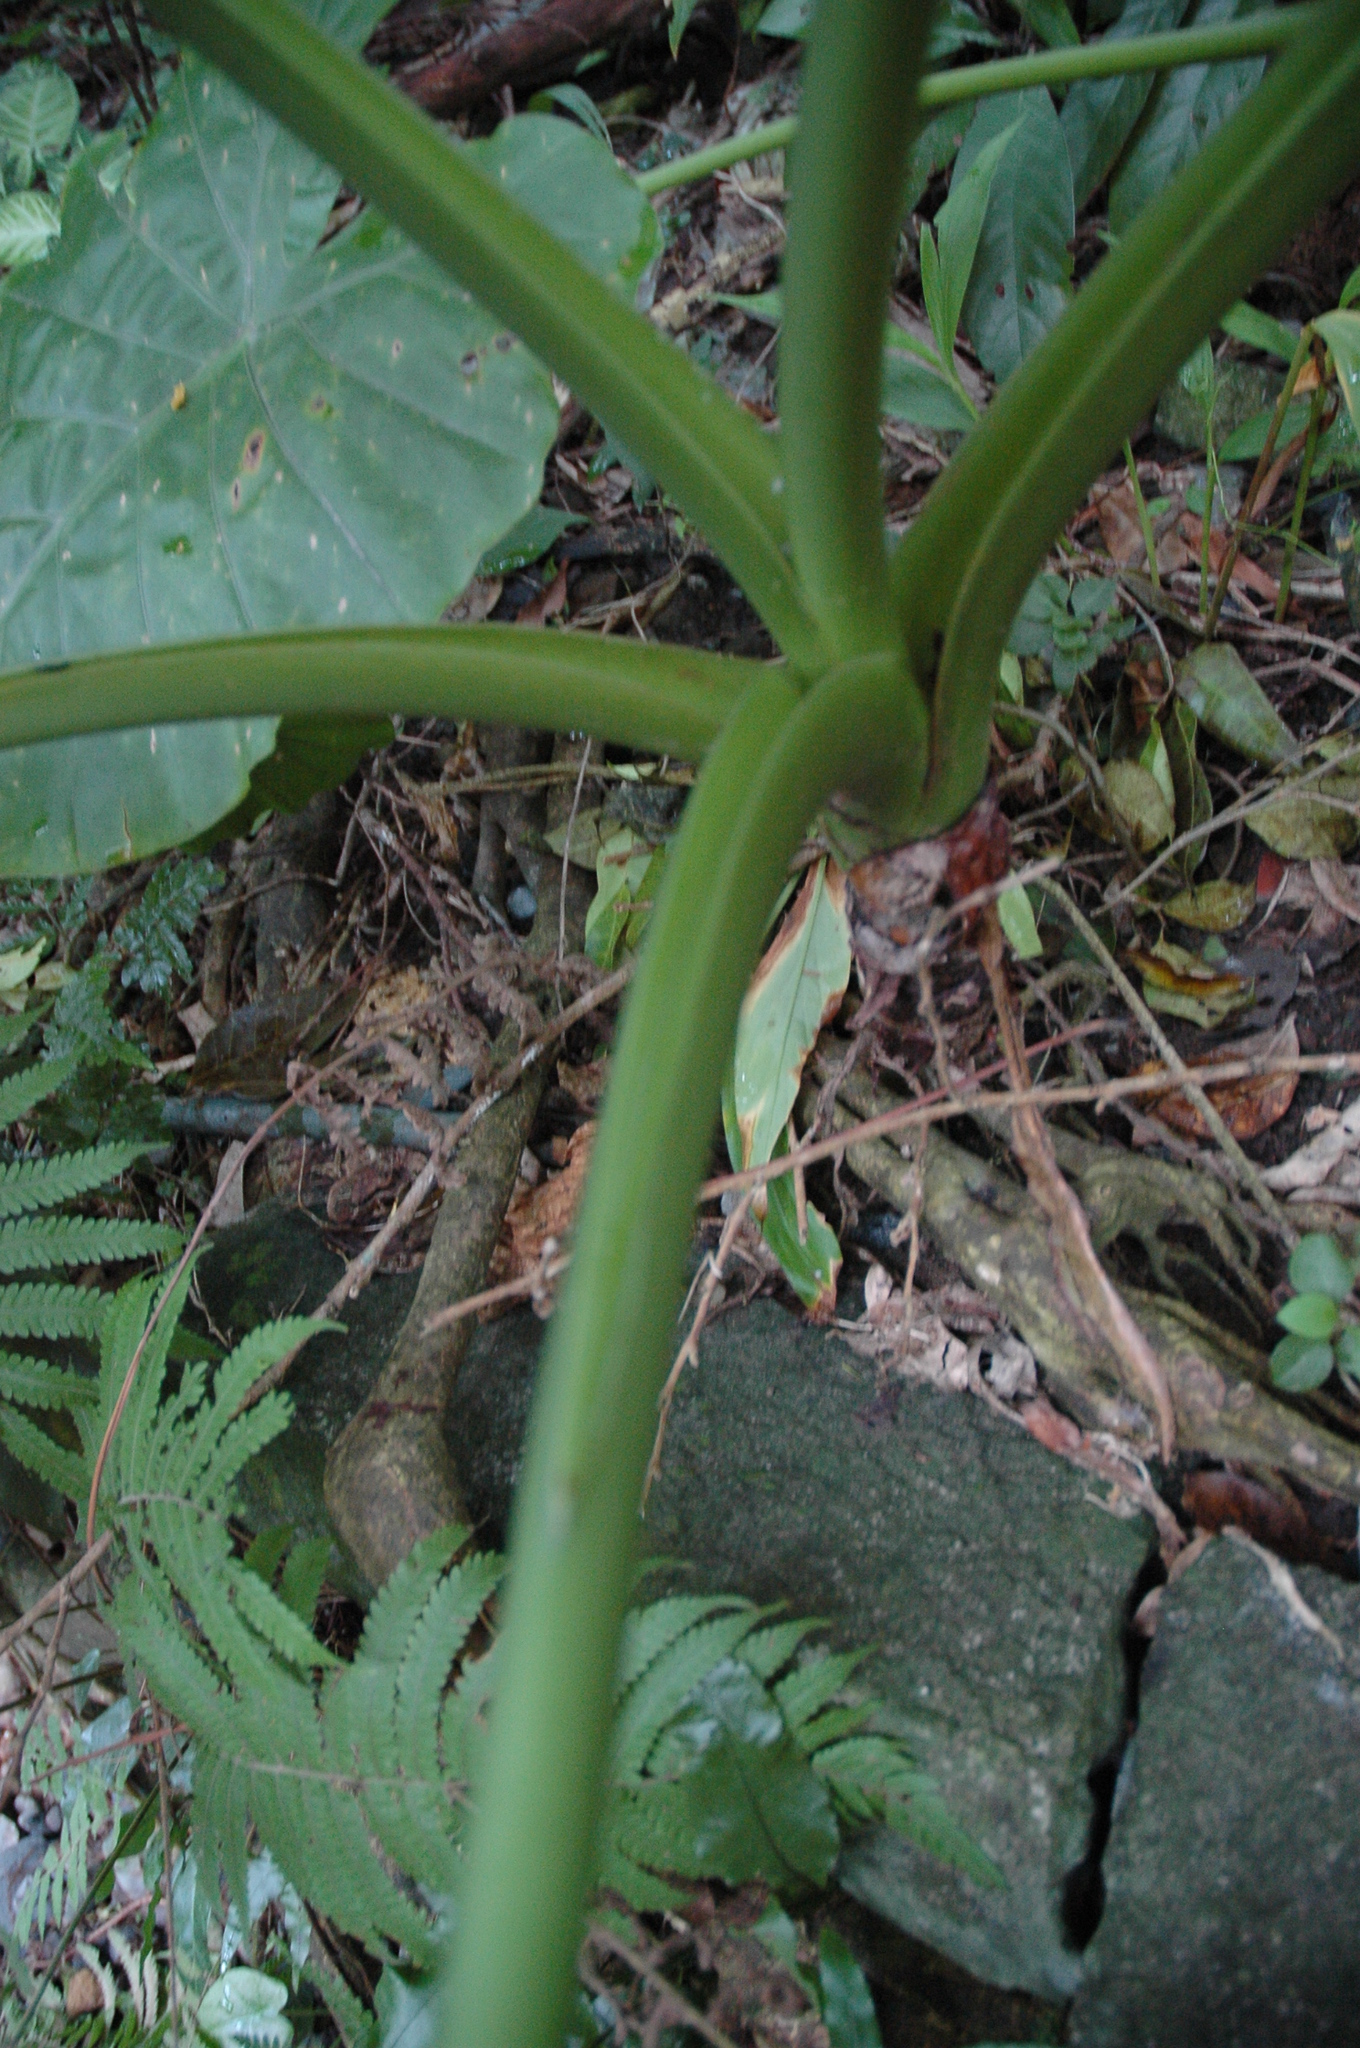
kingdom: Plantae
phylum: Tracheophyta
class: Liliopsida
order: Alismatales
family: Araceae
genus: Alocasia
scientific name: Alocasia odora
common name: Asian taro
